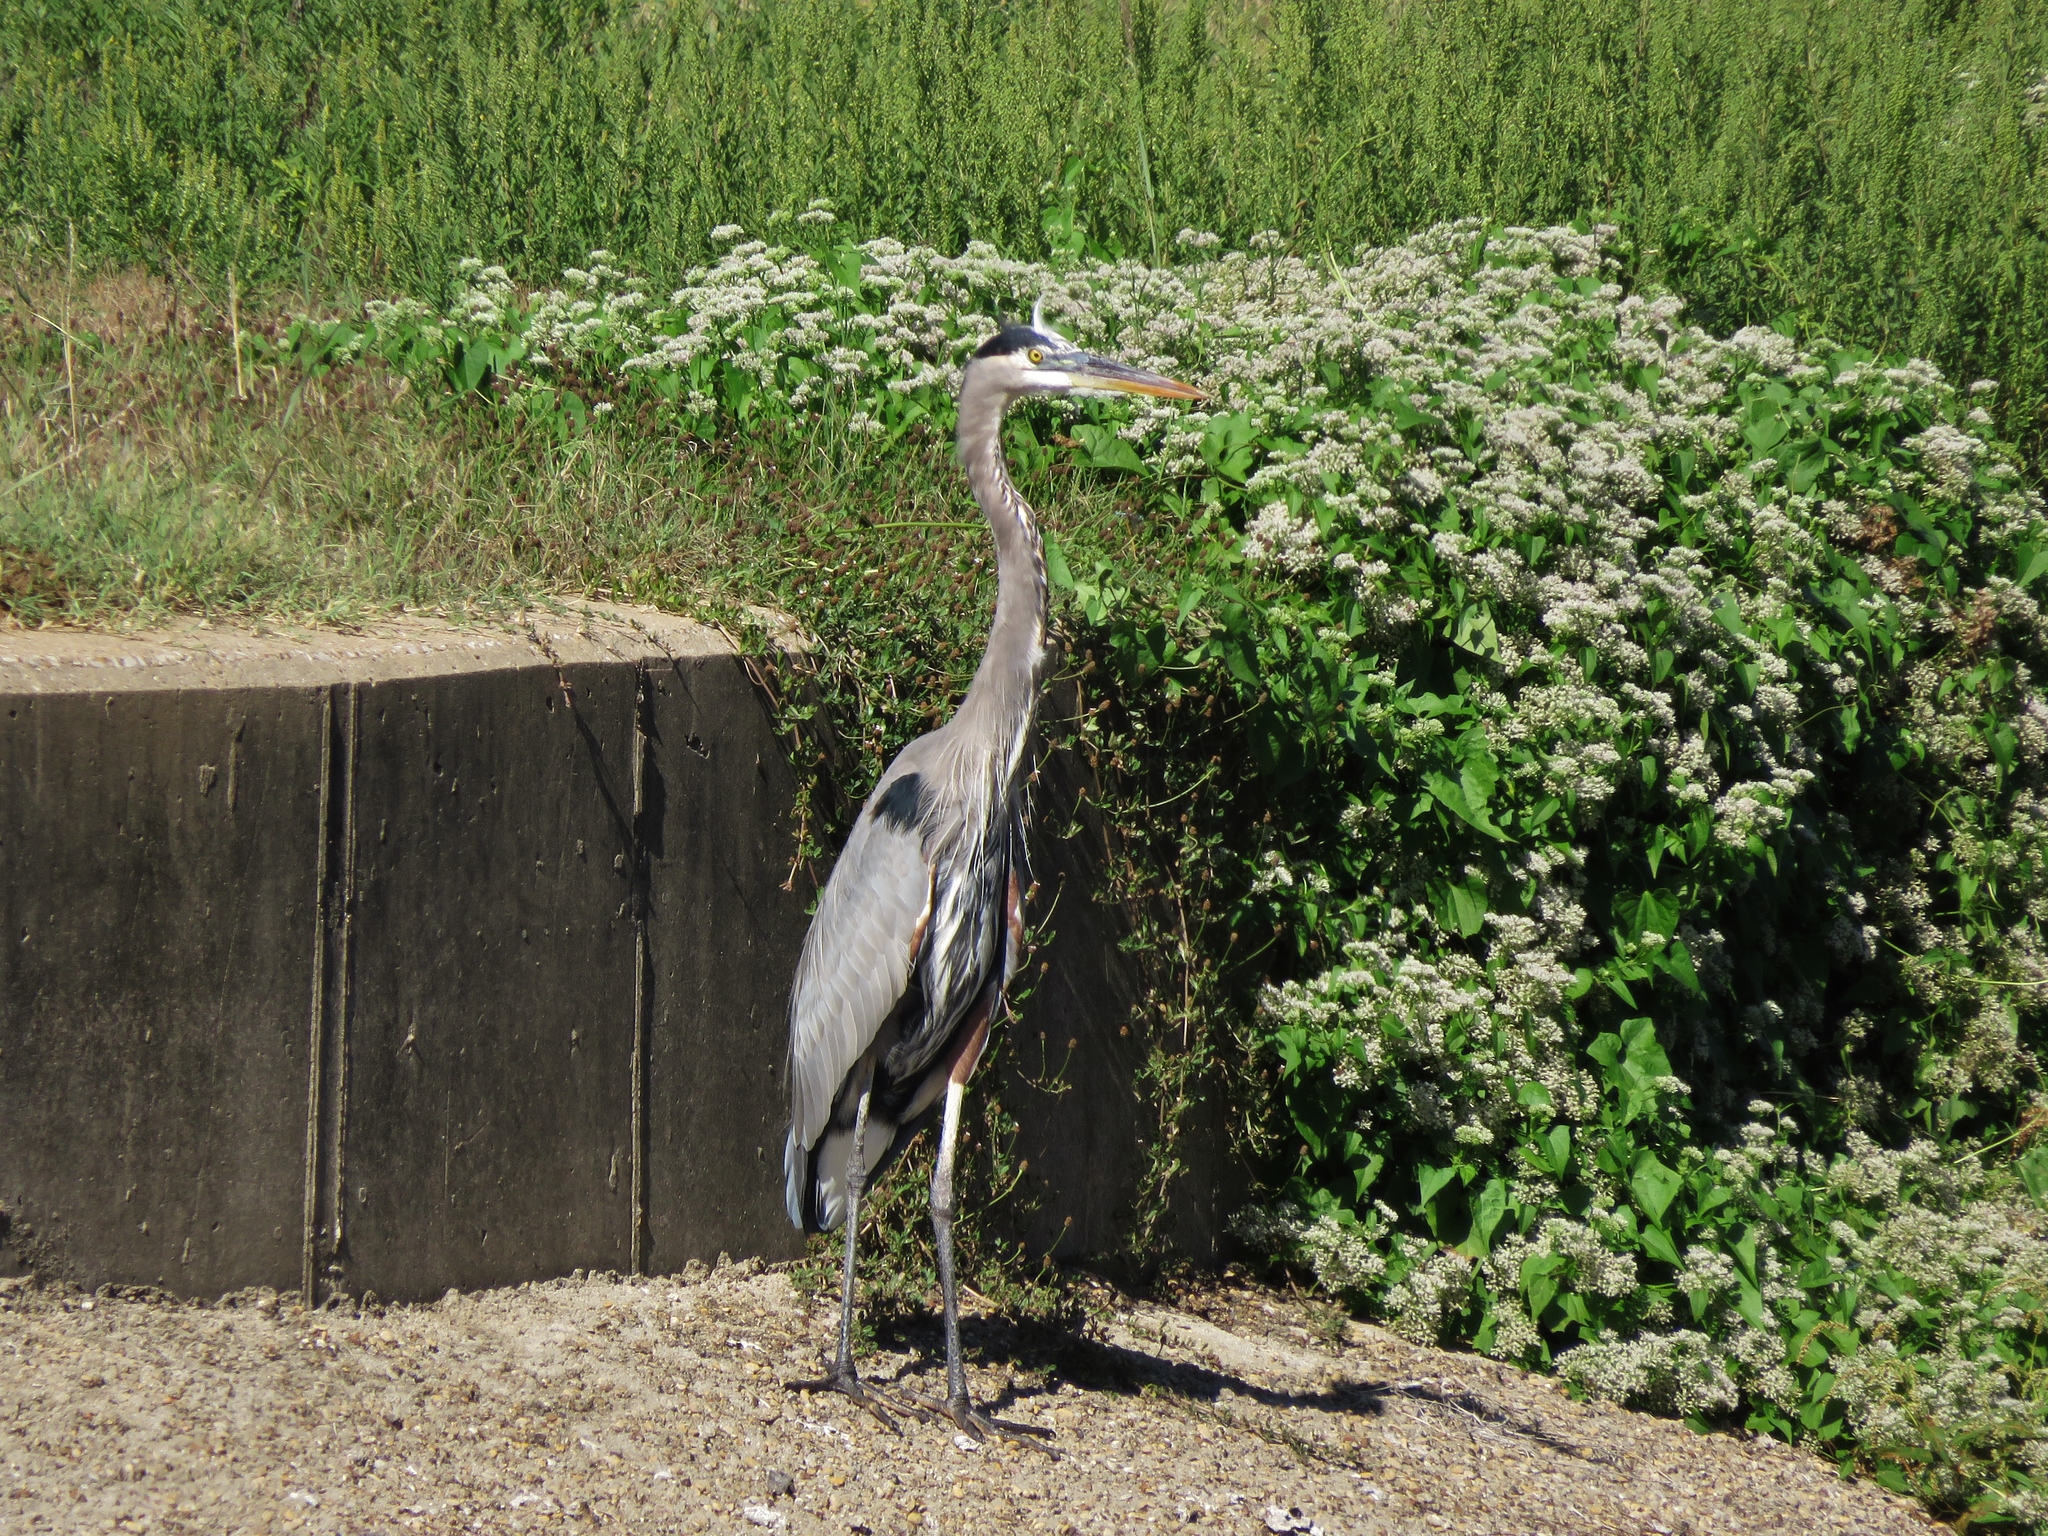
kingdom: Animalia
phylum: Chordata
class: Aves
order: Pelecaniformes
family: Ardeidae
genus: Ardea
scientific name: Ardea herodias
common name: Great blue heron
